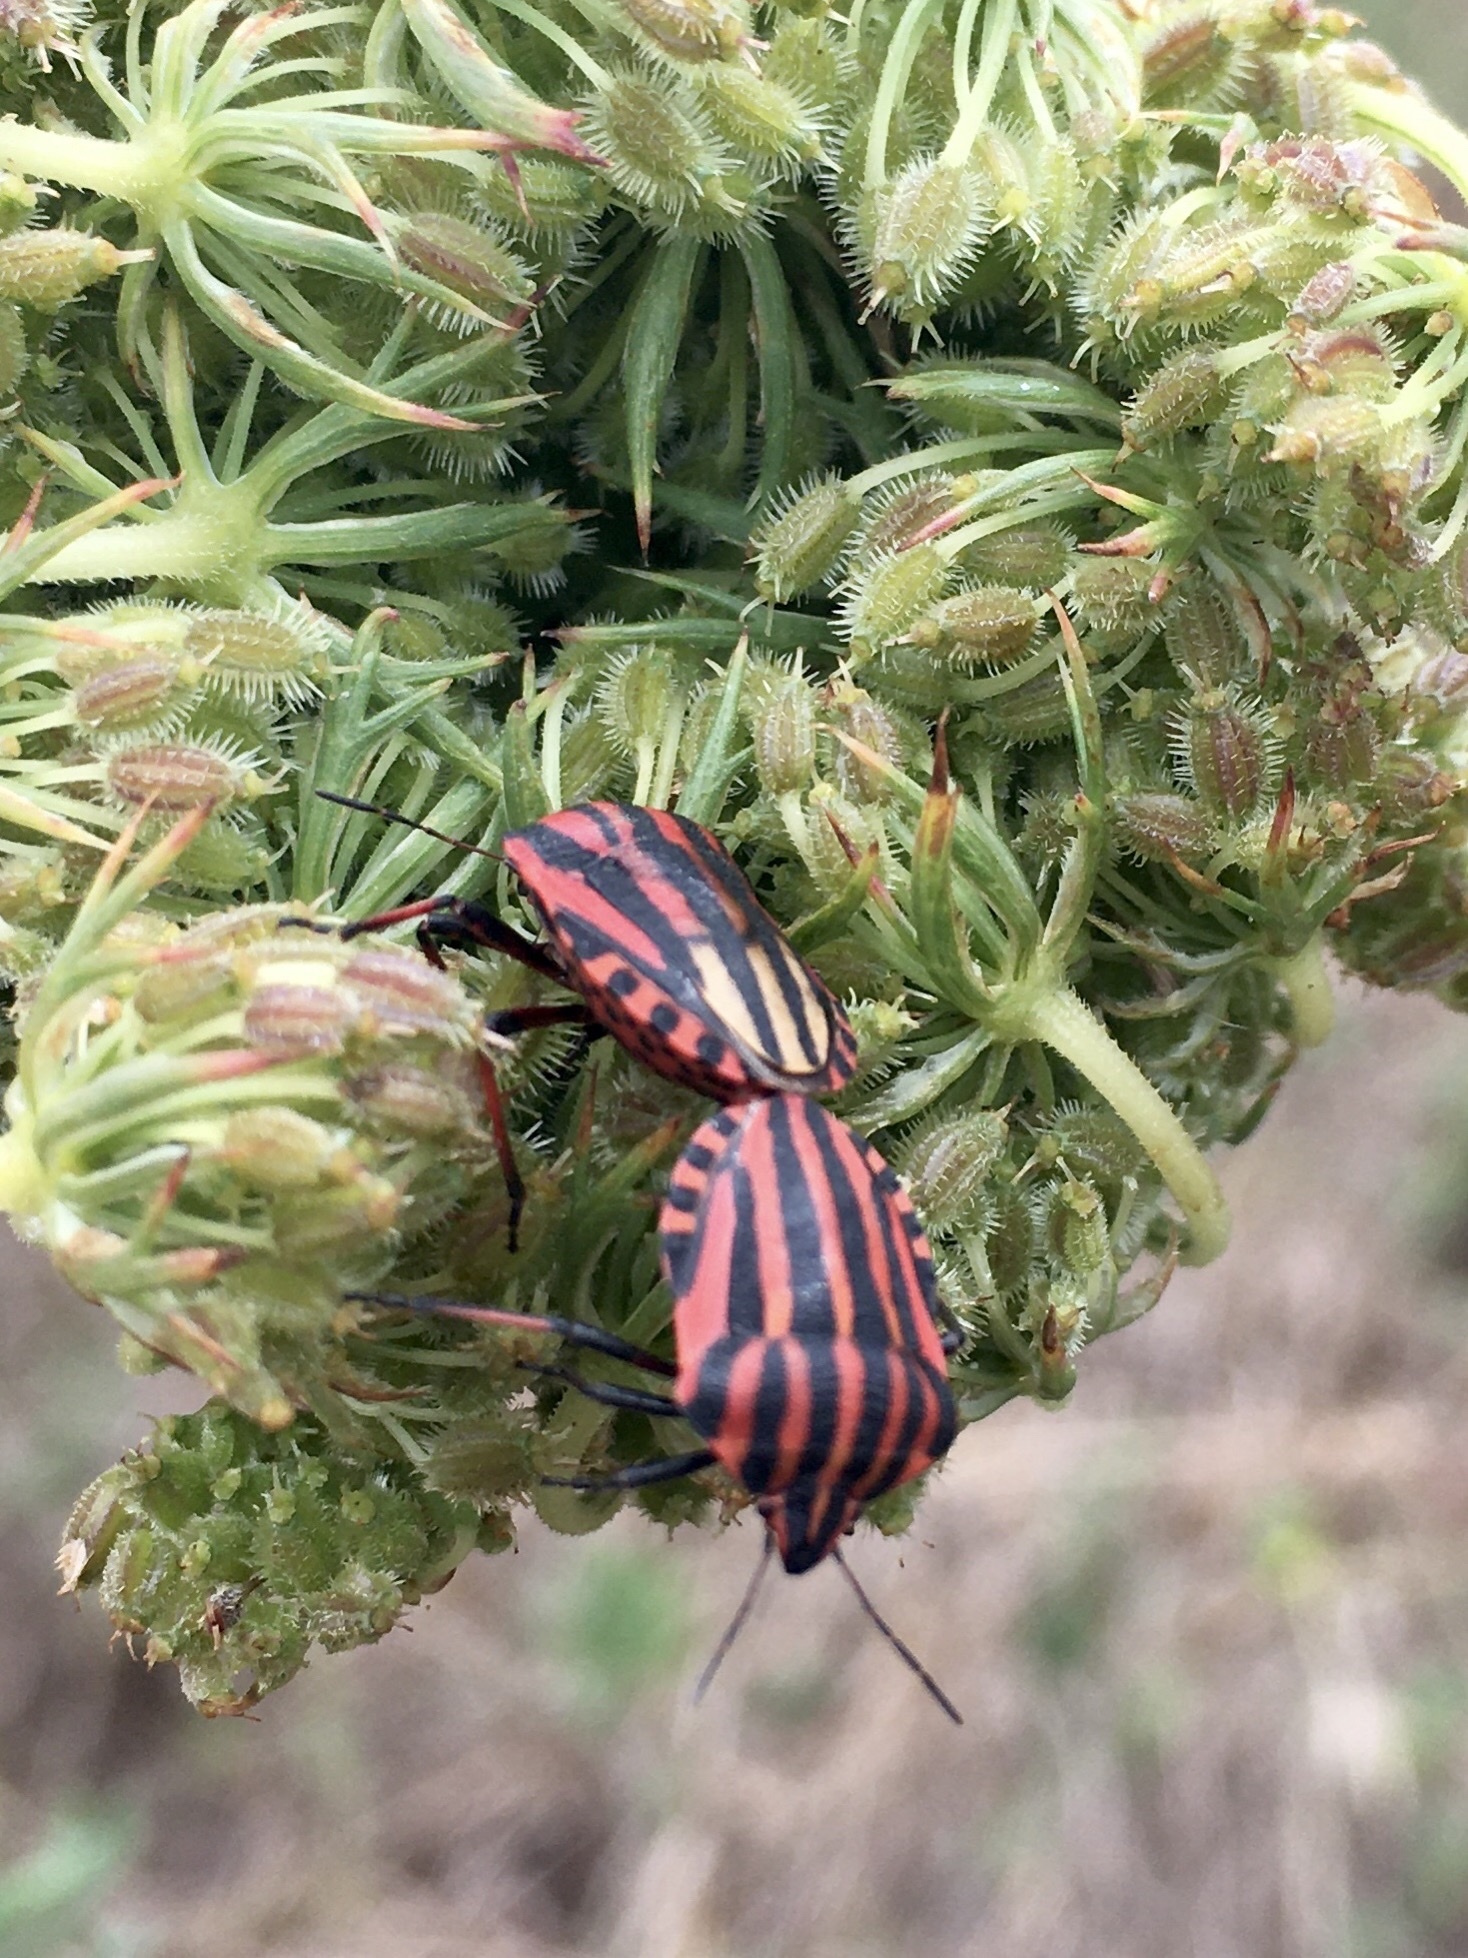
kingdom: Animalia
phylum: Arthropoda
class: Insecta
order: Hemiptera
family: Pentatomidae
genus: Graphosoma
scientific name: Graphosoma italicum
